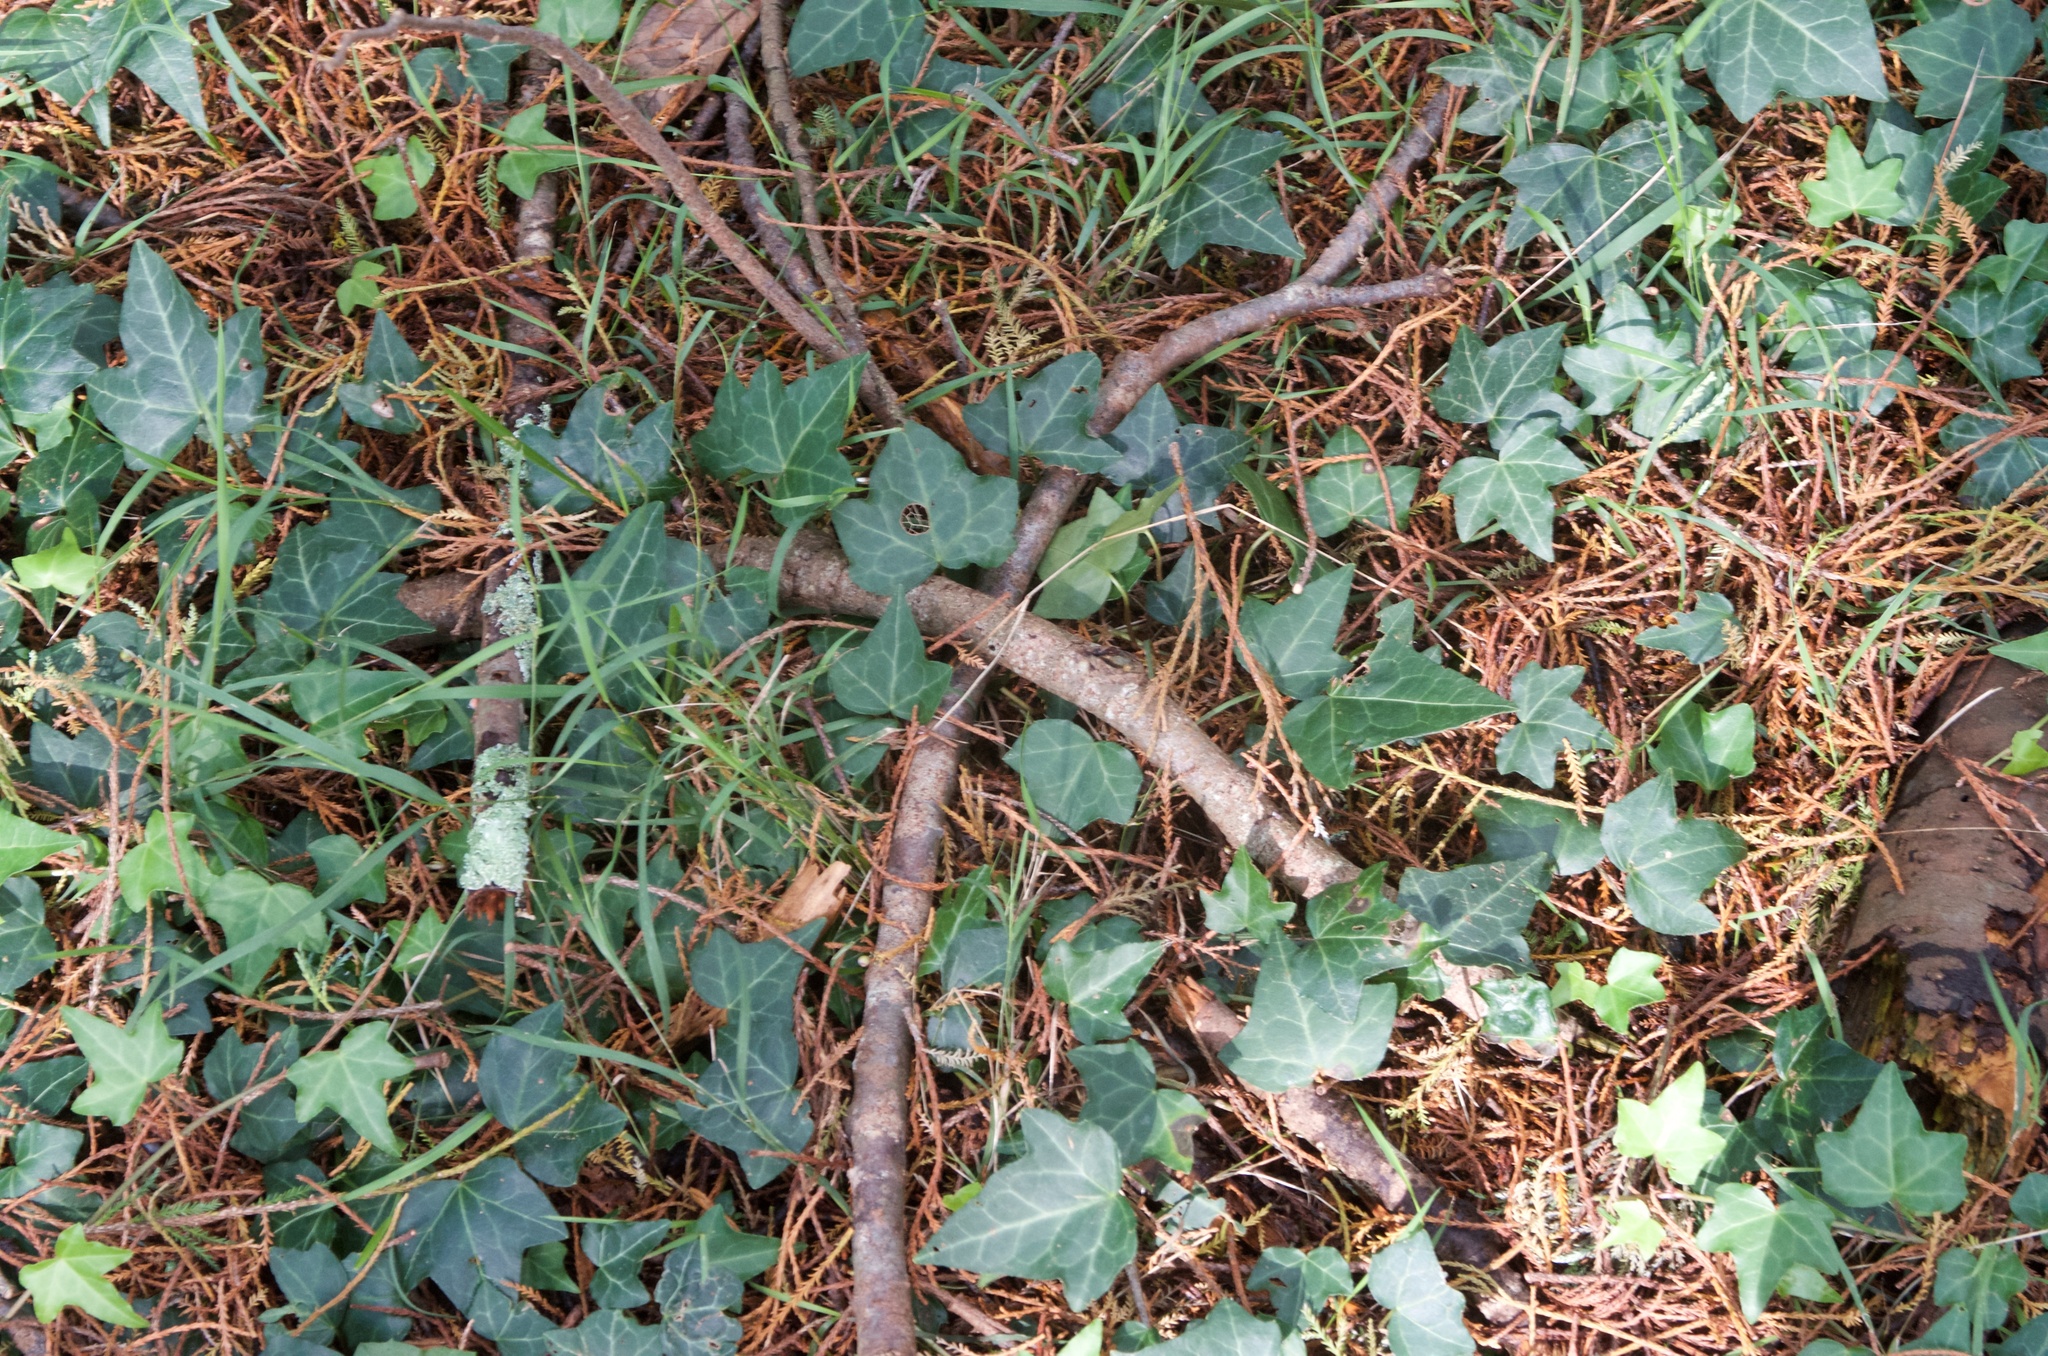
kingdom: Plantae
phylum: Tracheophyta
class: Magnoliopsida
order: Apiales
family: Araliaceae
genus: Hedera
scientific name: Hedera helix
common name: Ivy
